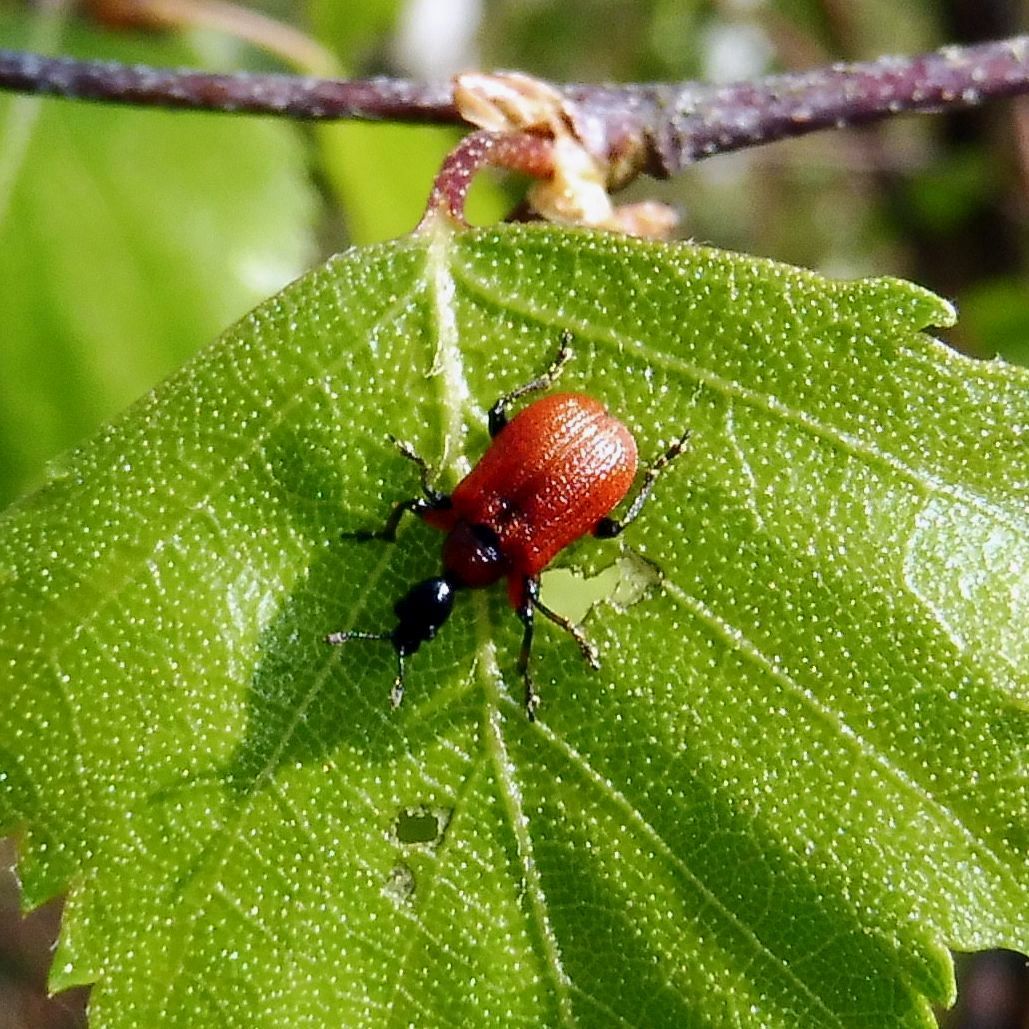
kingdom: Animalia
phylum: Arthropoda
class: Insecta
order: Coleoptera
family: Attelabidae
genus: Apoderus
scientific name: Apoderus coryli
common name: Hazel leaf roller
